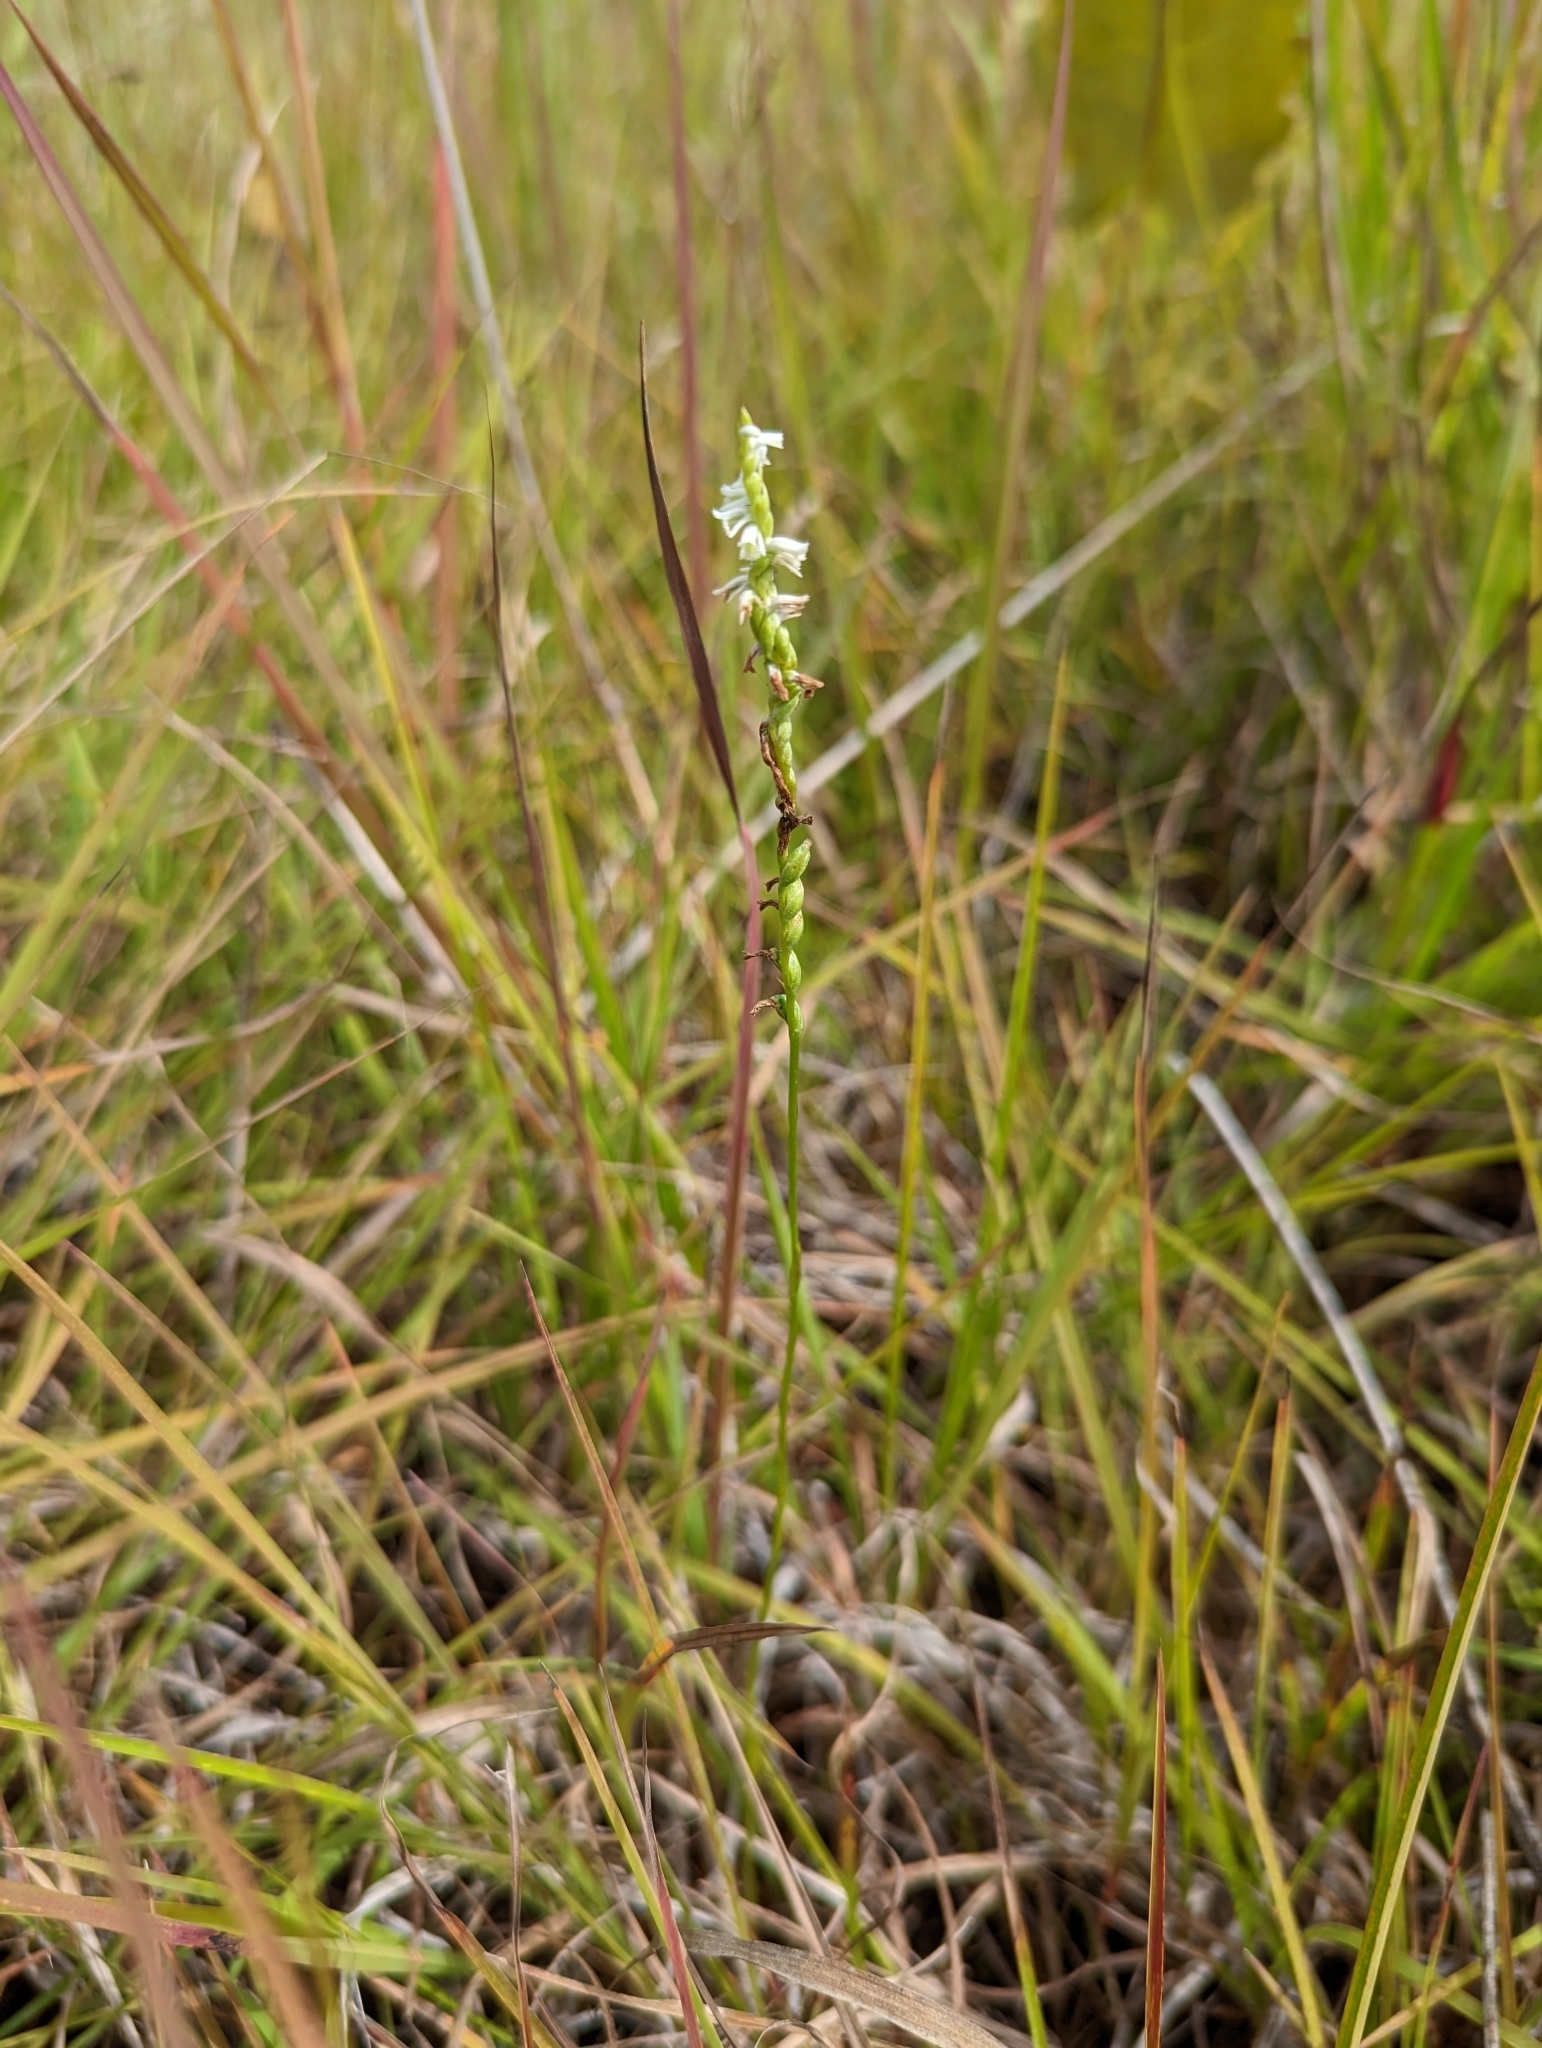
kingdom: Plantae
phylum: Tracheophyta
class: Liliopsida
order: Asparagales
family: Orchidaceae
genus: Spiranthes
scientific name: Spiranthes lacera
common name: Northern slender ladies'-tresses
